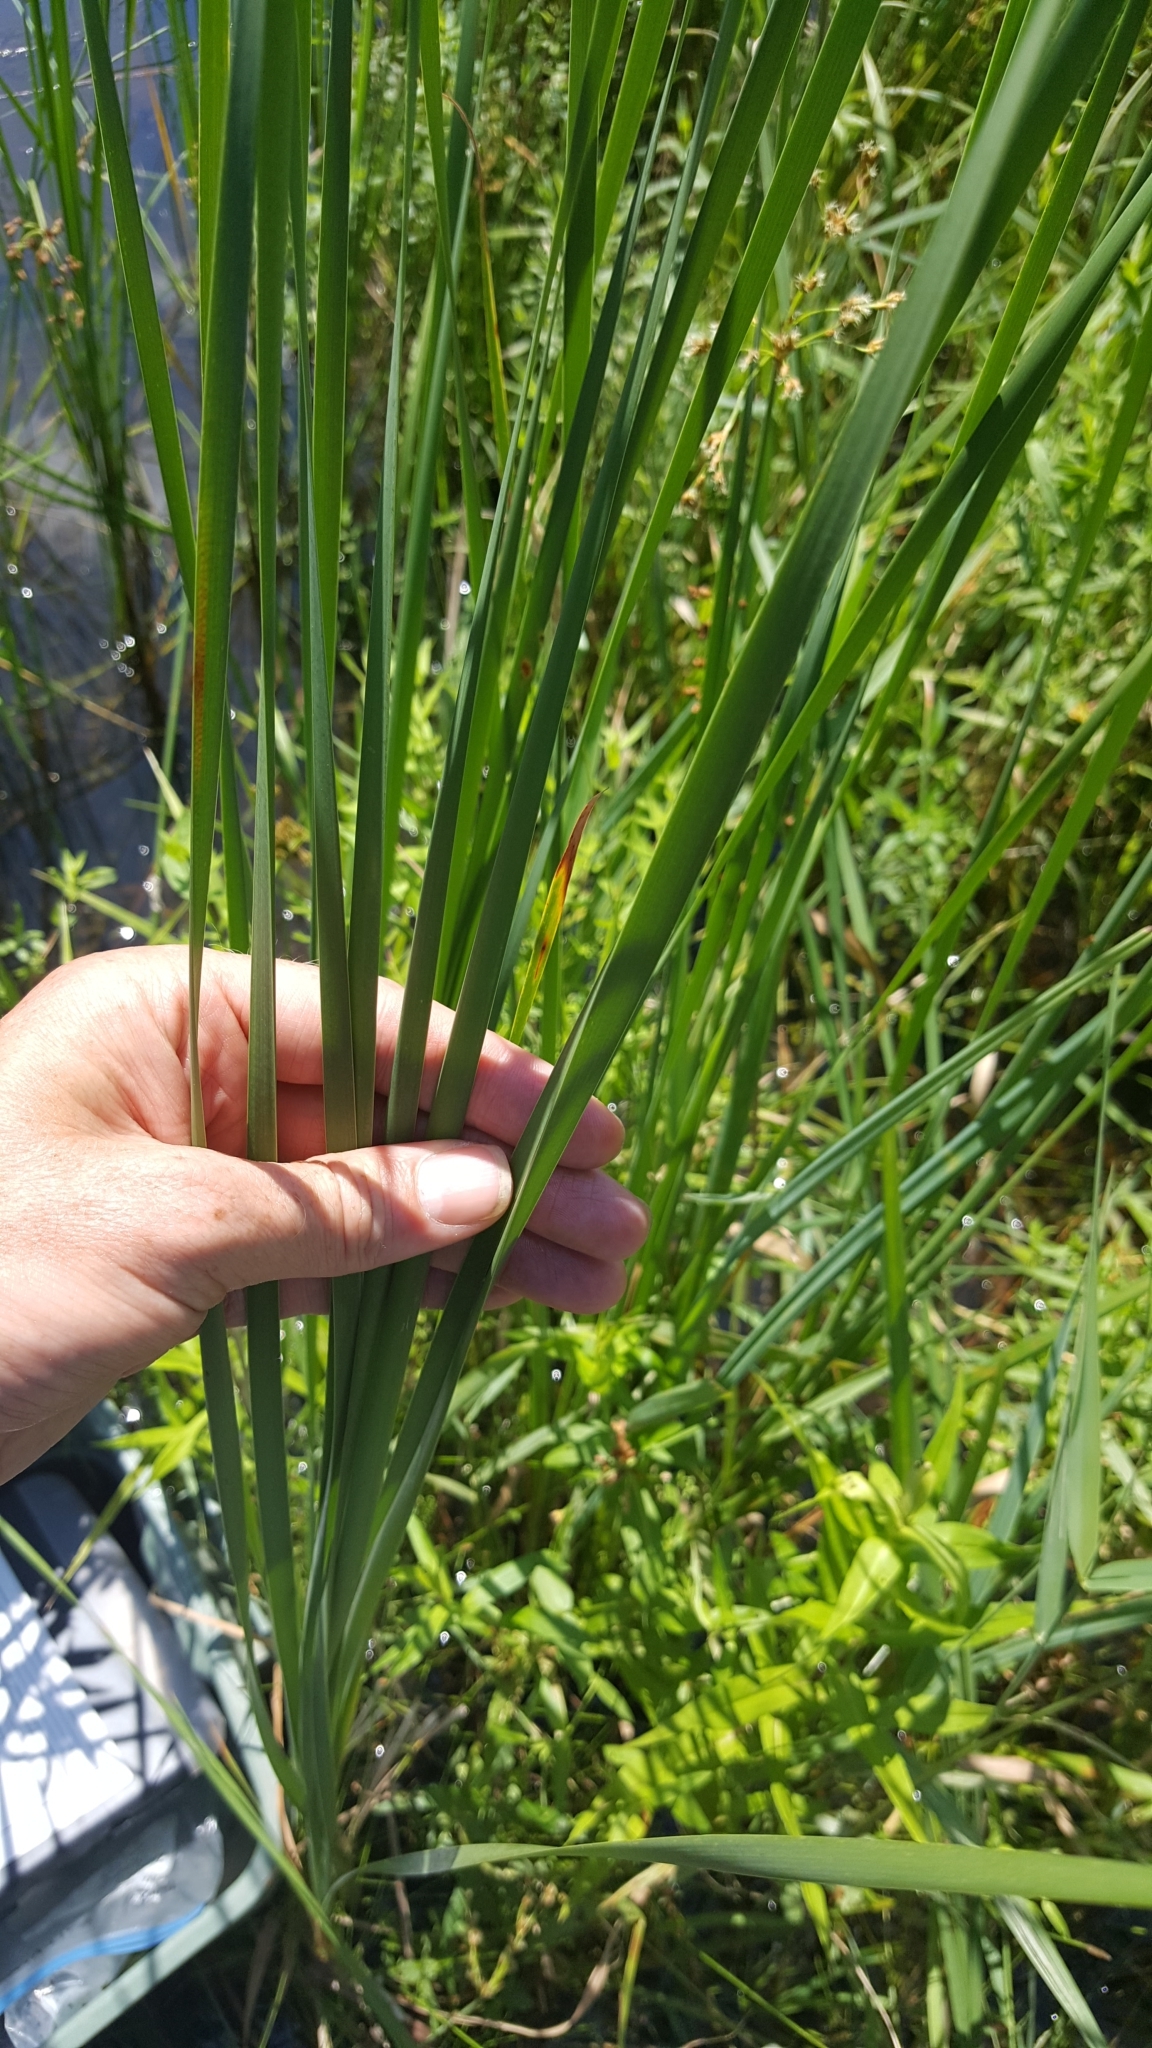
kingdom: Plantae
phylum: Tracheophyta
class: Liliopsida
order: Poales
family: Typhaceae
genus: Typha
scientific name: Typha angustifolia
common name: Lesser bulrush
